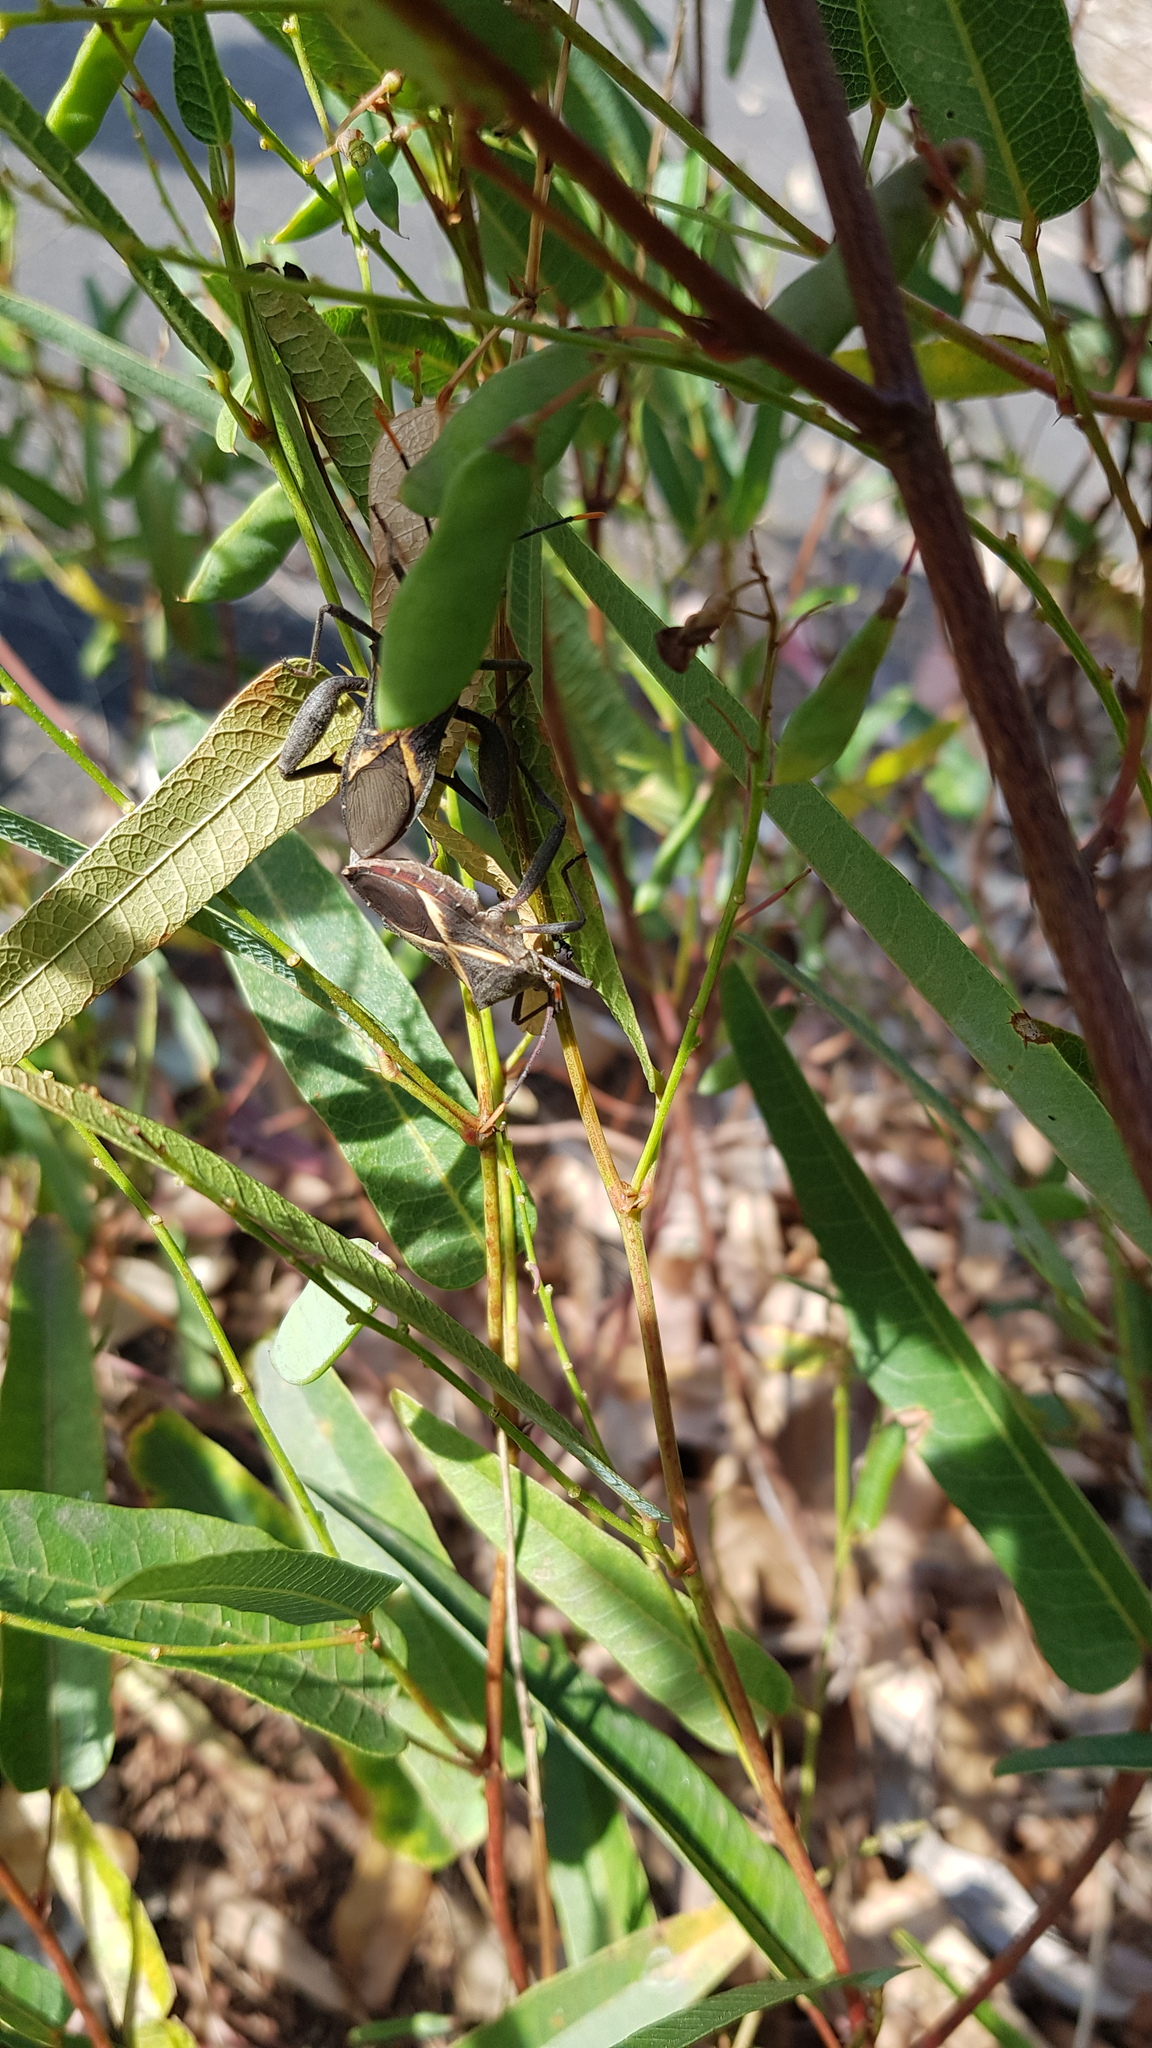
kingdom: Animalia
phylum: Arthropoda
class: Insecta
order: Hemiptera
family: Coreidae
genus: Mictis
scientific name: Mictis profana
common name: Crusader bug
